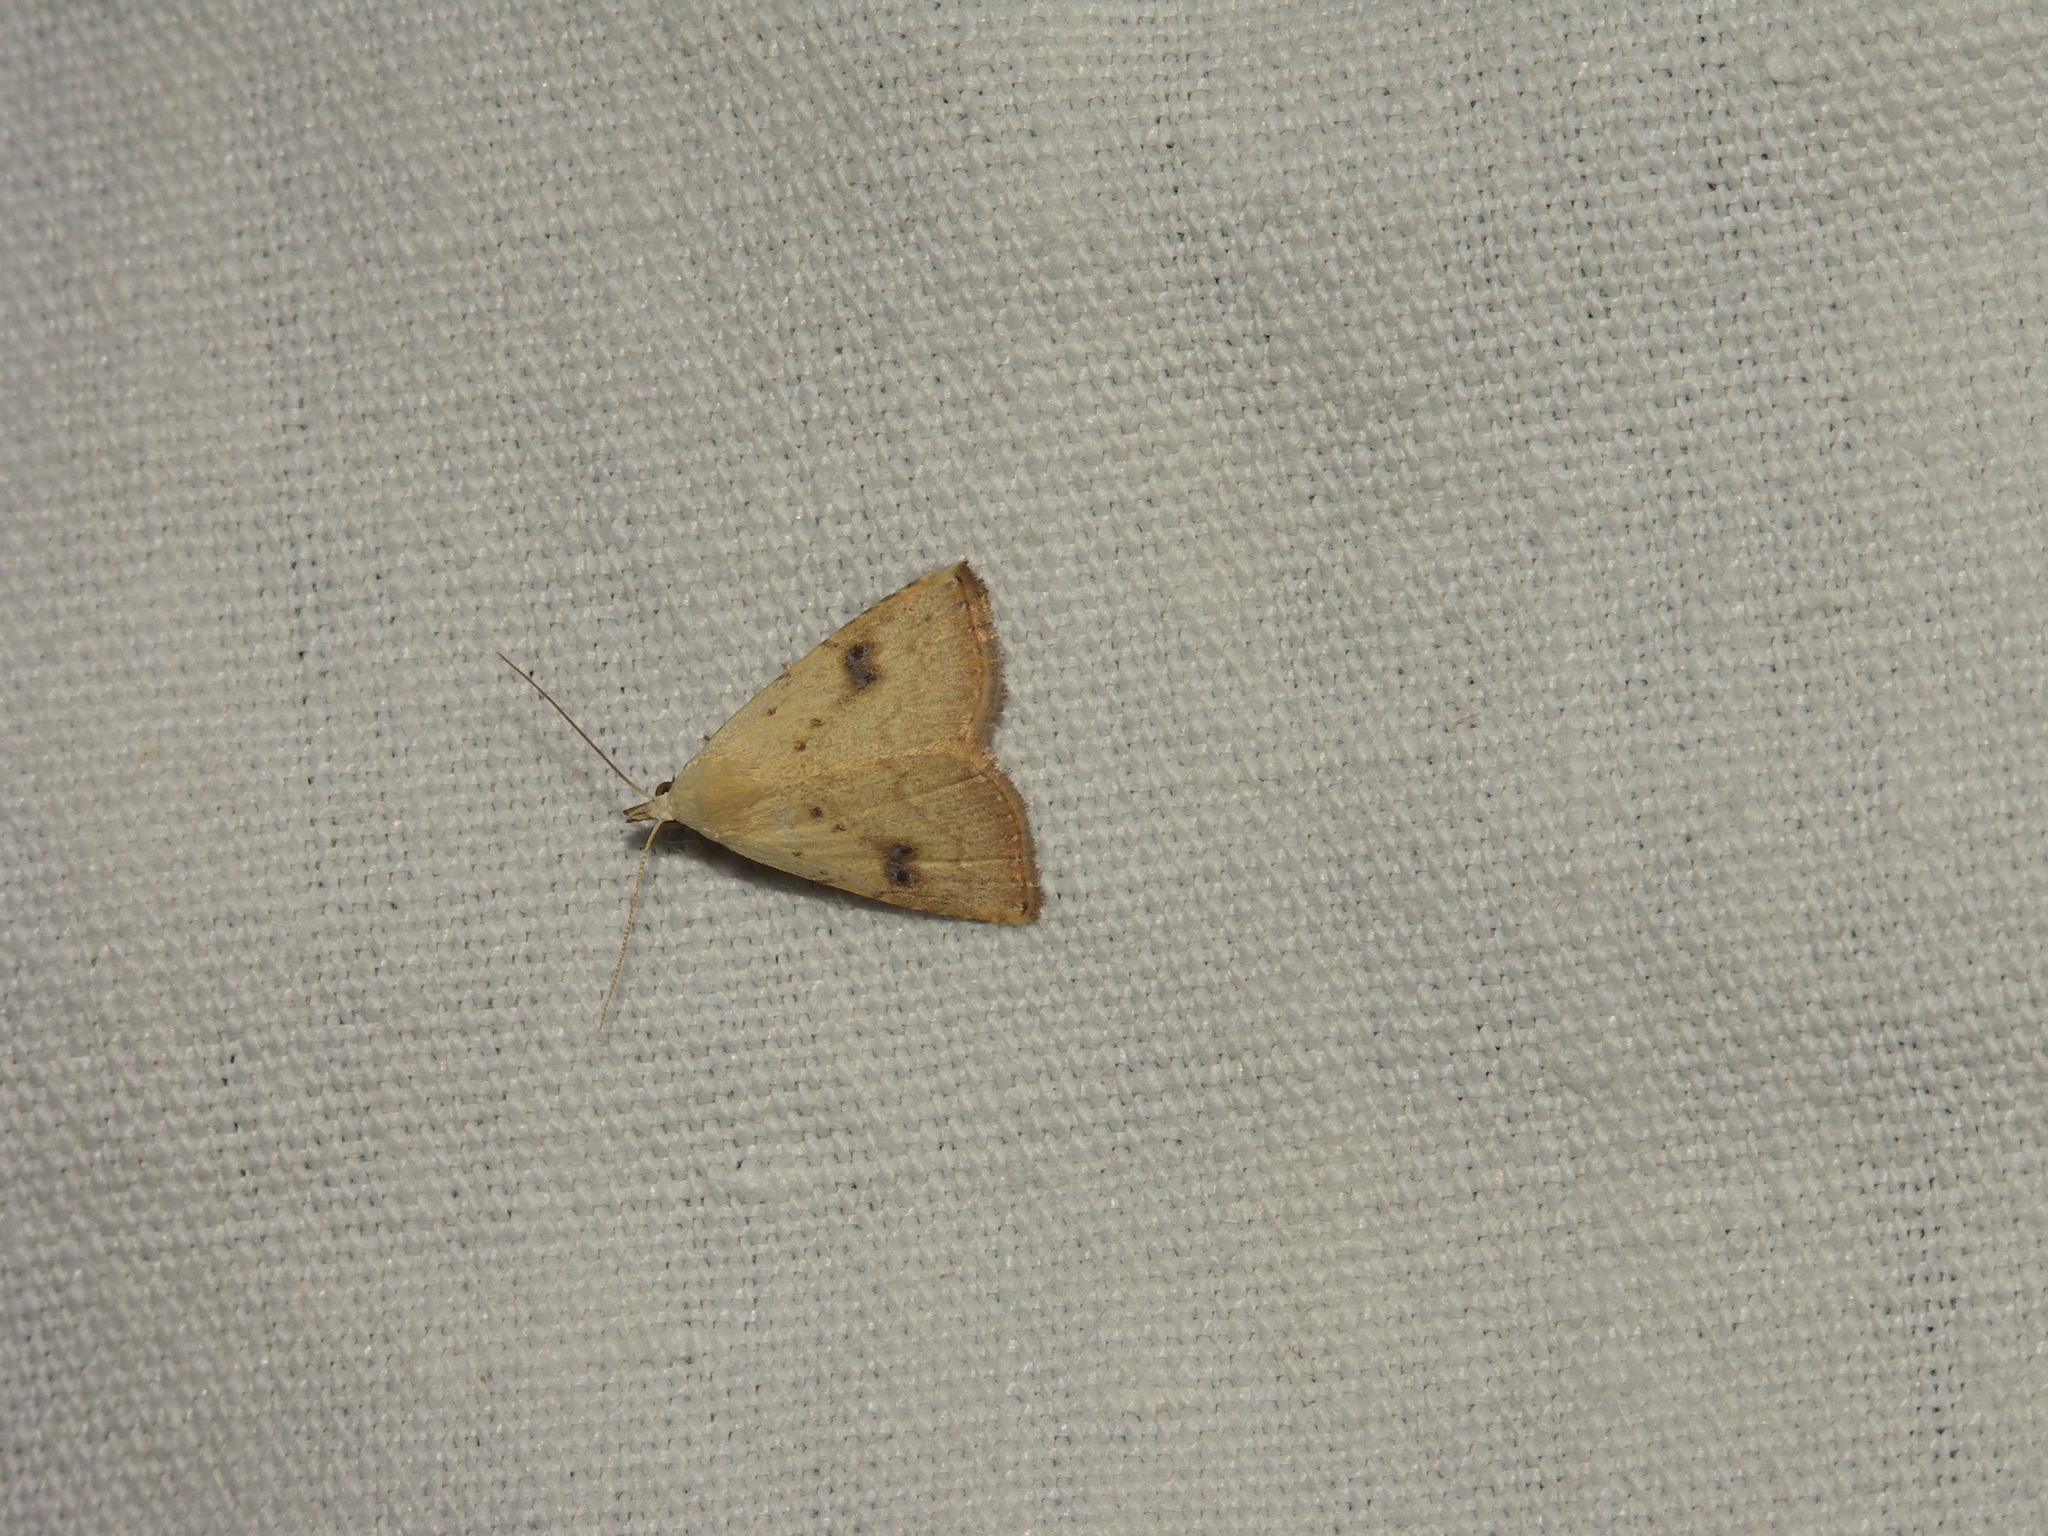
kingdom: Animalia
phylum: Arthropoda
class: Insecta
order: Lepidoptera
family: Erebidae
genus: Rivula
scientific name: Rivula sericealis
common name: Straw dot
